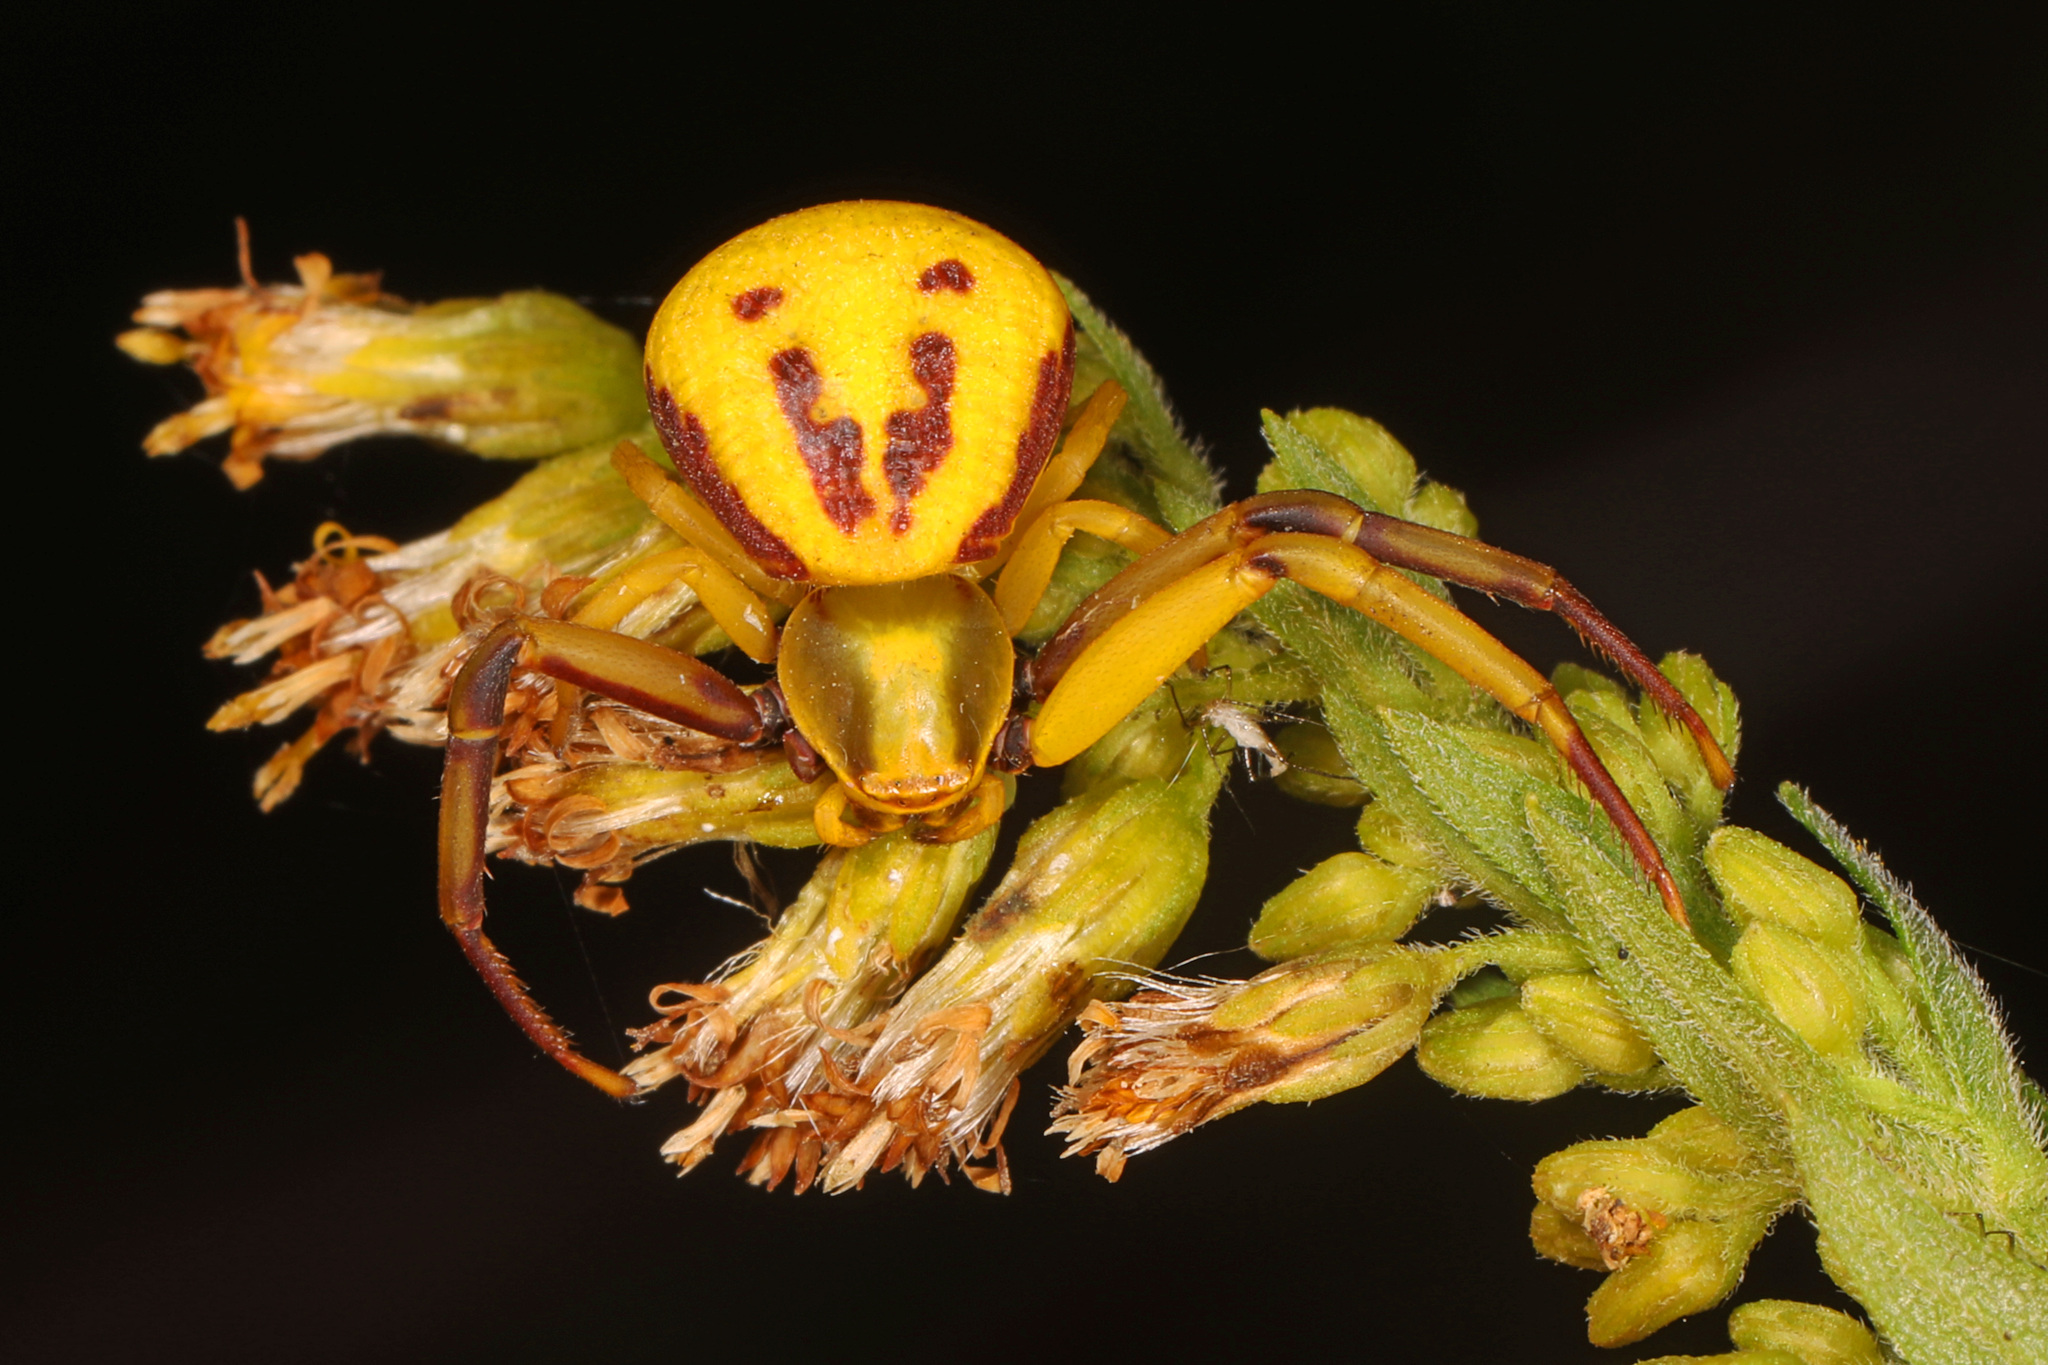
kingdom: Animalia
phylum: Arthropoda
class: Arachnida
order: Araneae
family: Thomisidae
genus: Misumenoides
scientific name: Misumenoides formosipes
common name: White-banded crab spider
